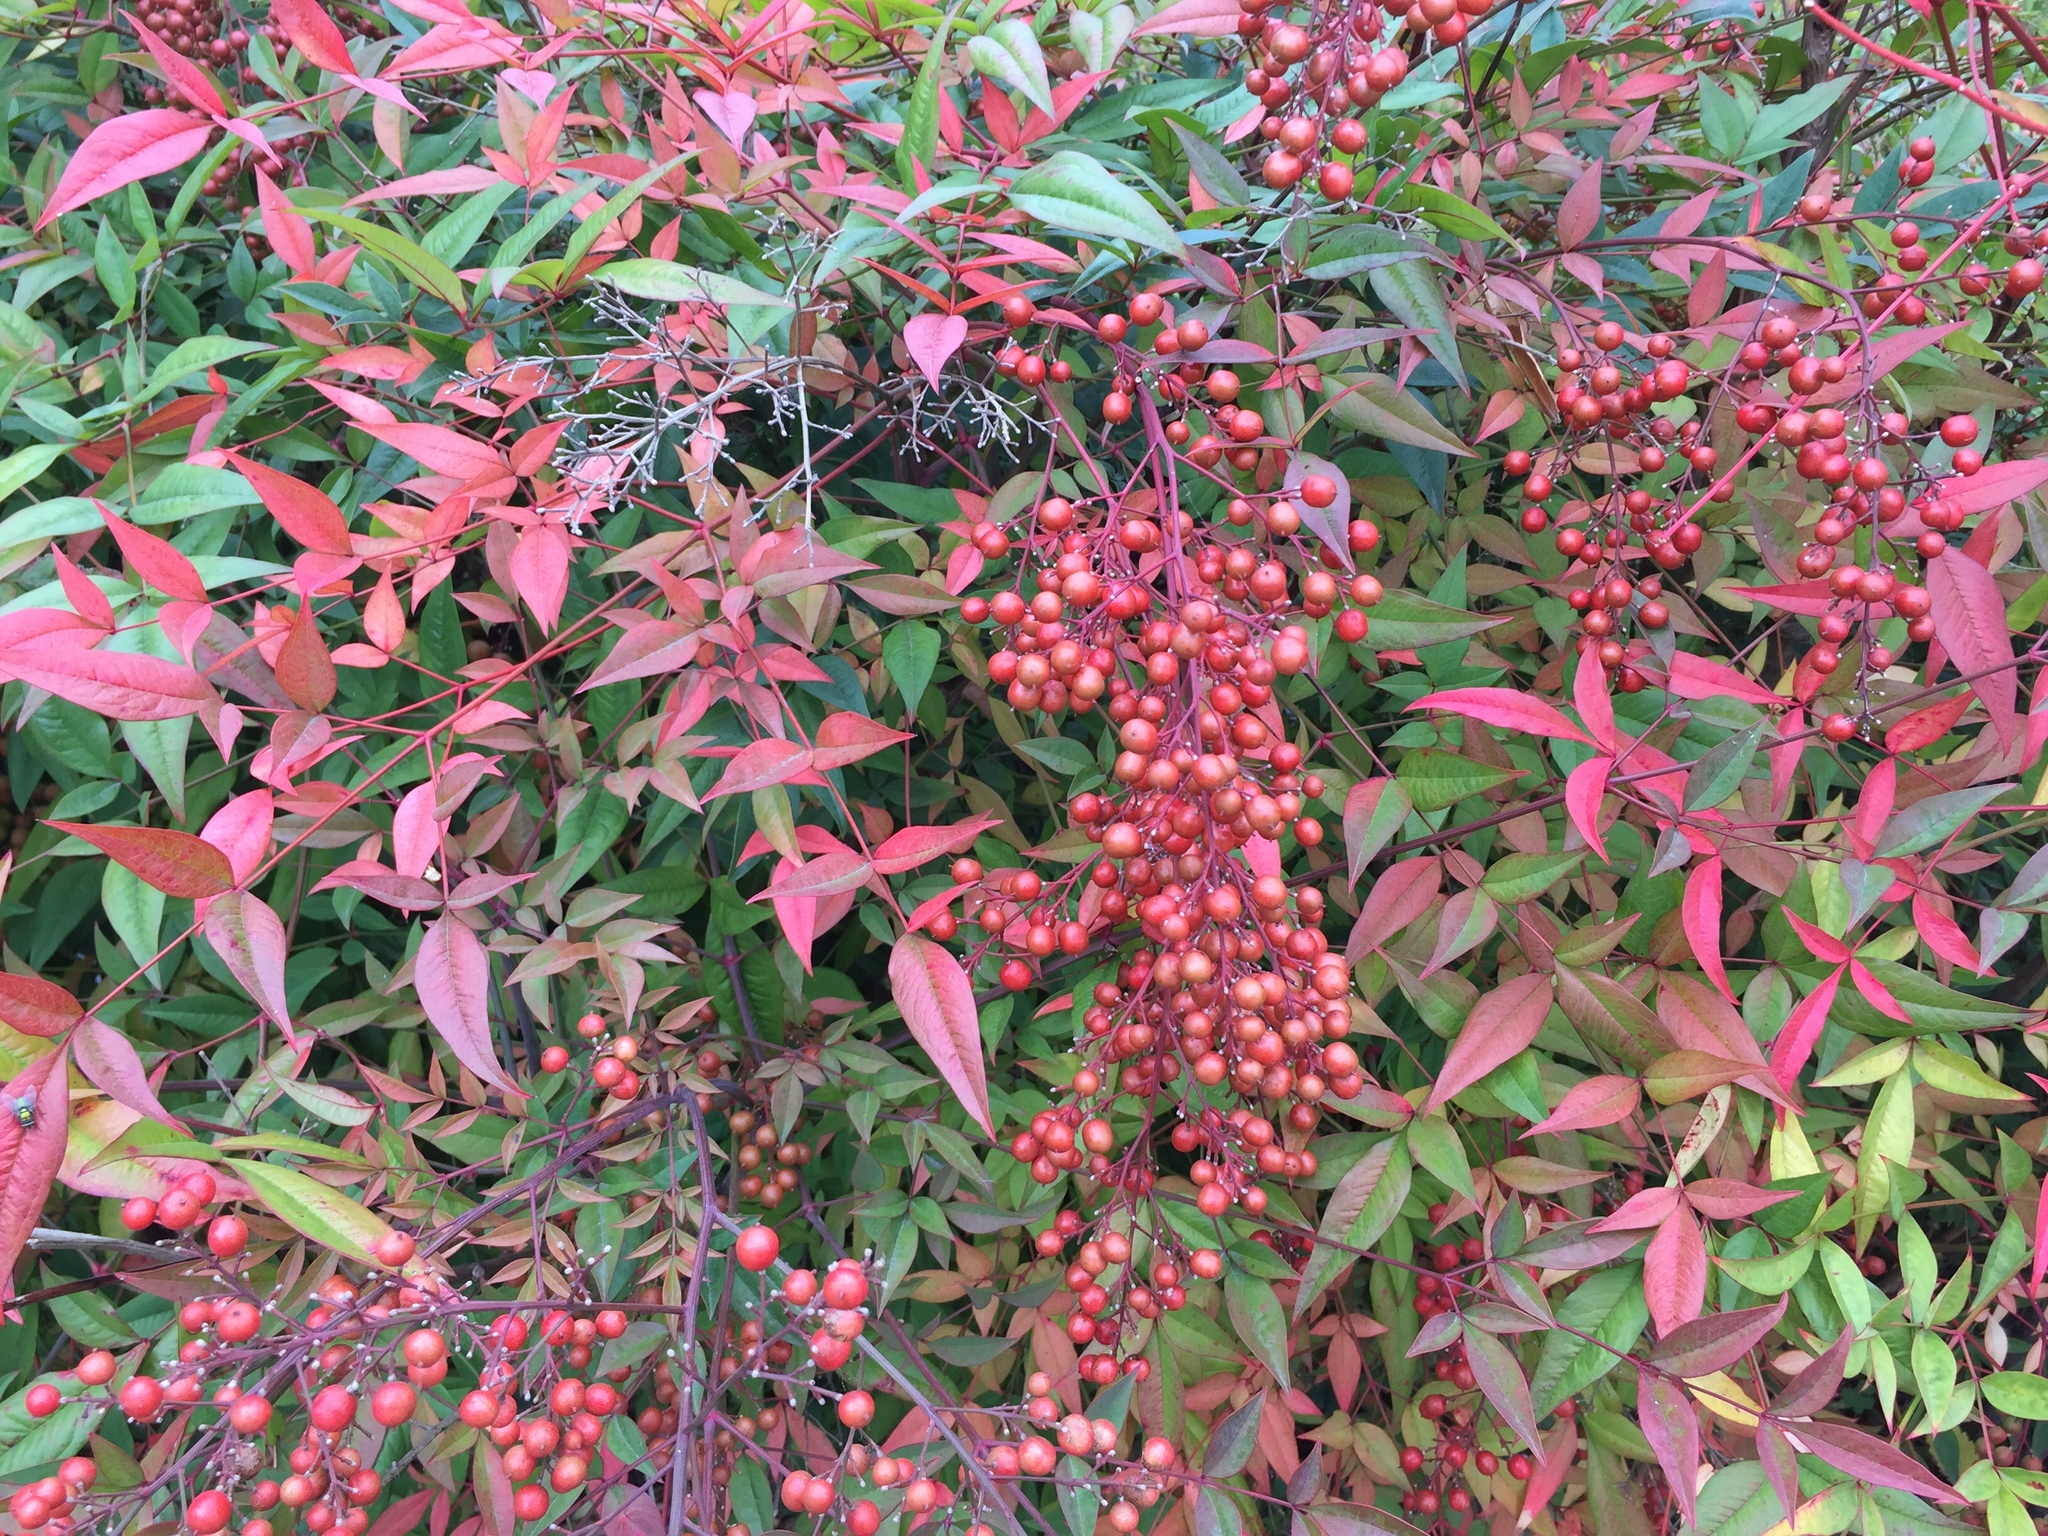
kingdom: Plantae
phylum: Tracheophyta
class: Magnoliopsida
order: Ranunculales
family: Berberidaceae
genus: Nandina
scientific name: Nandina domestica
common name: Sacred bamboo
